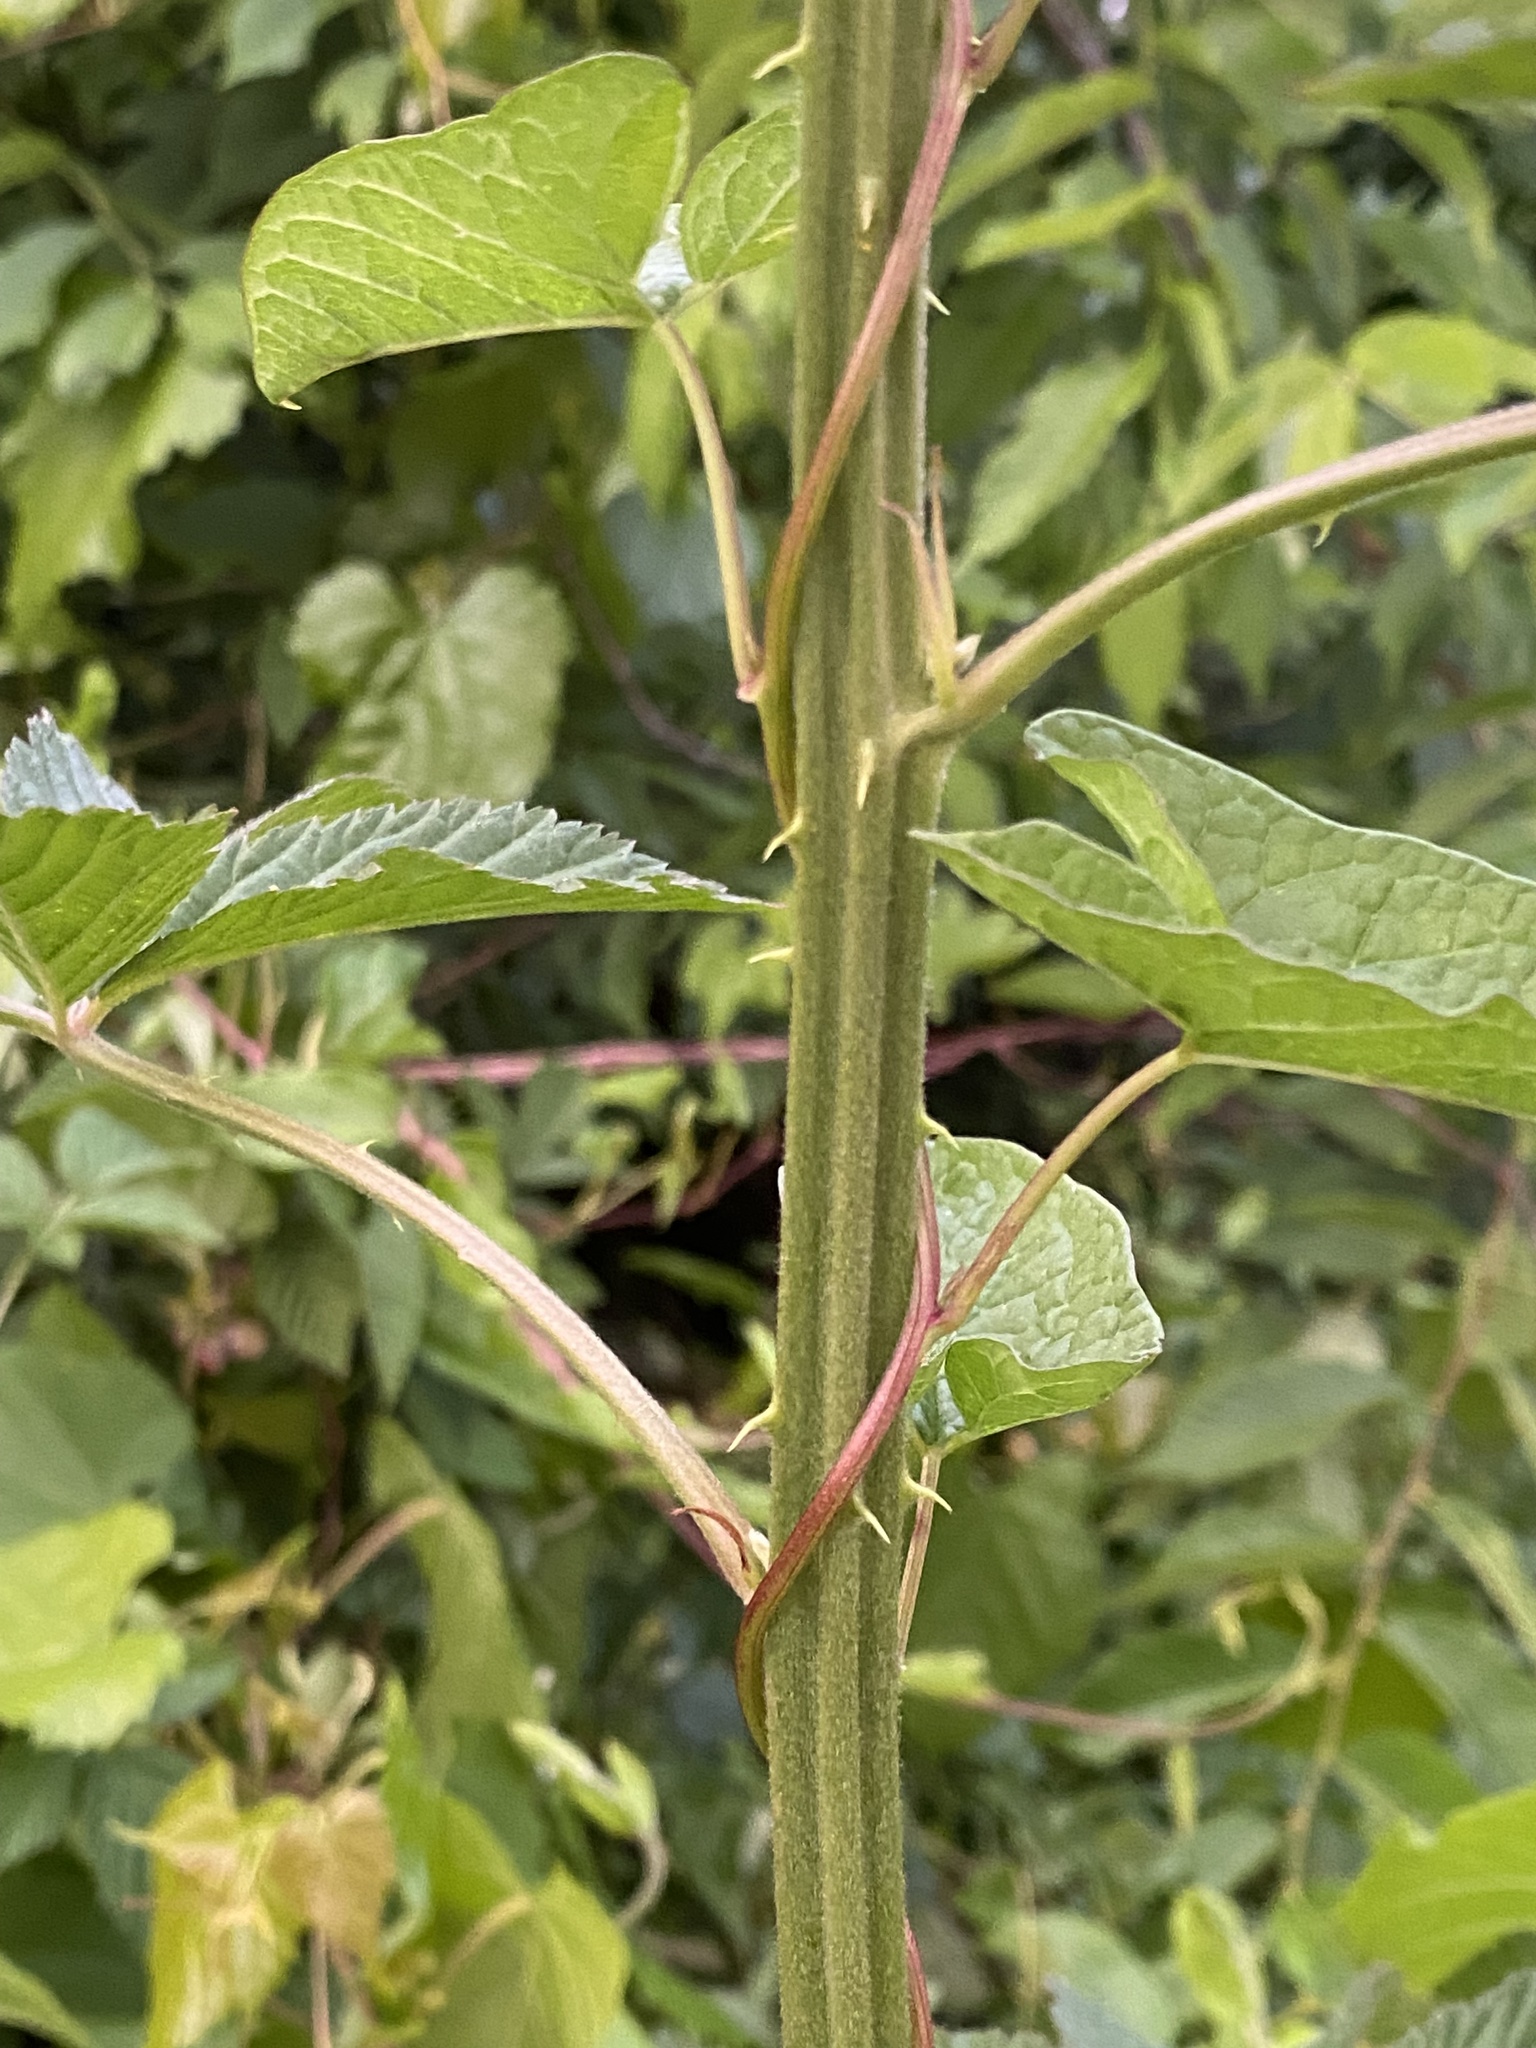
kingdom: Plantae
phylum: Tracheophyta
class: Magnoliopsida
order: Rosales
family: Rosaceae
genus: Rubus
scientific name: Rubus pensilvanicus
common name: Pennsylvania blackberry
